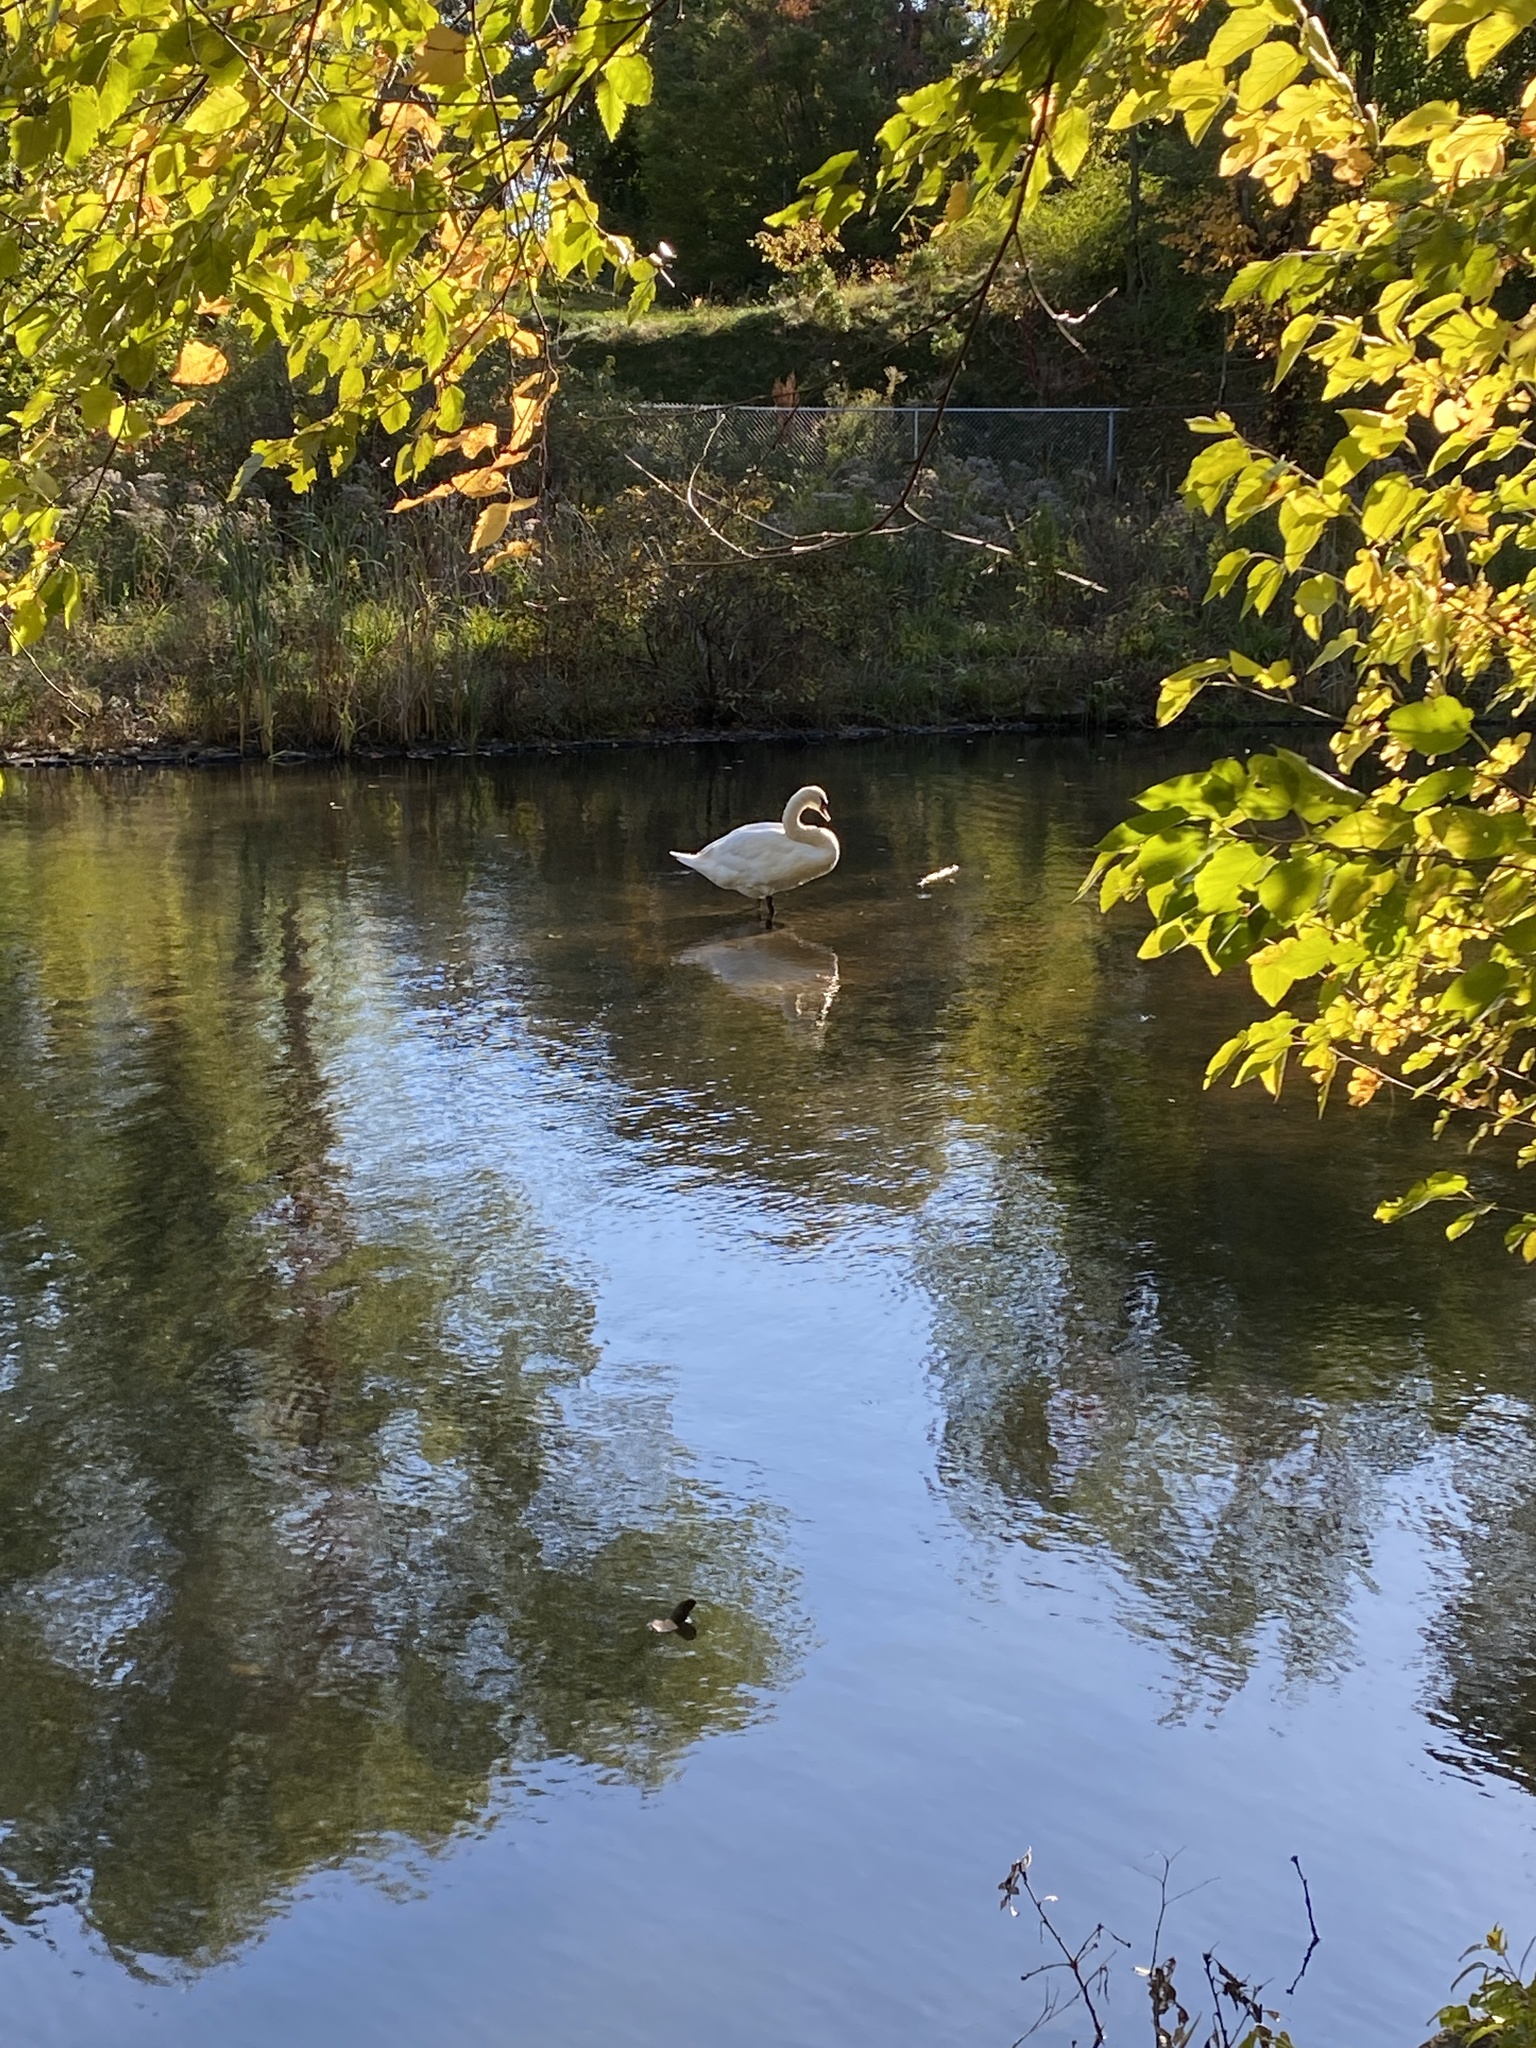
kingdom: Animalia
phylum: Chordata
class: Aves
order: Anseriformes
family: Anatidae
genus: Cygnus
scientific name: Cygnus olor
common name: Mute swan
